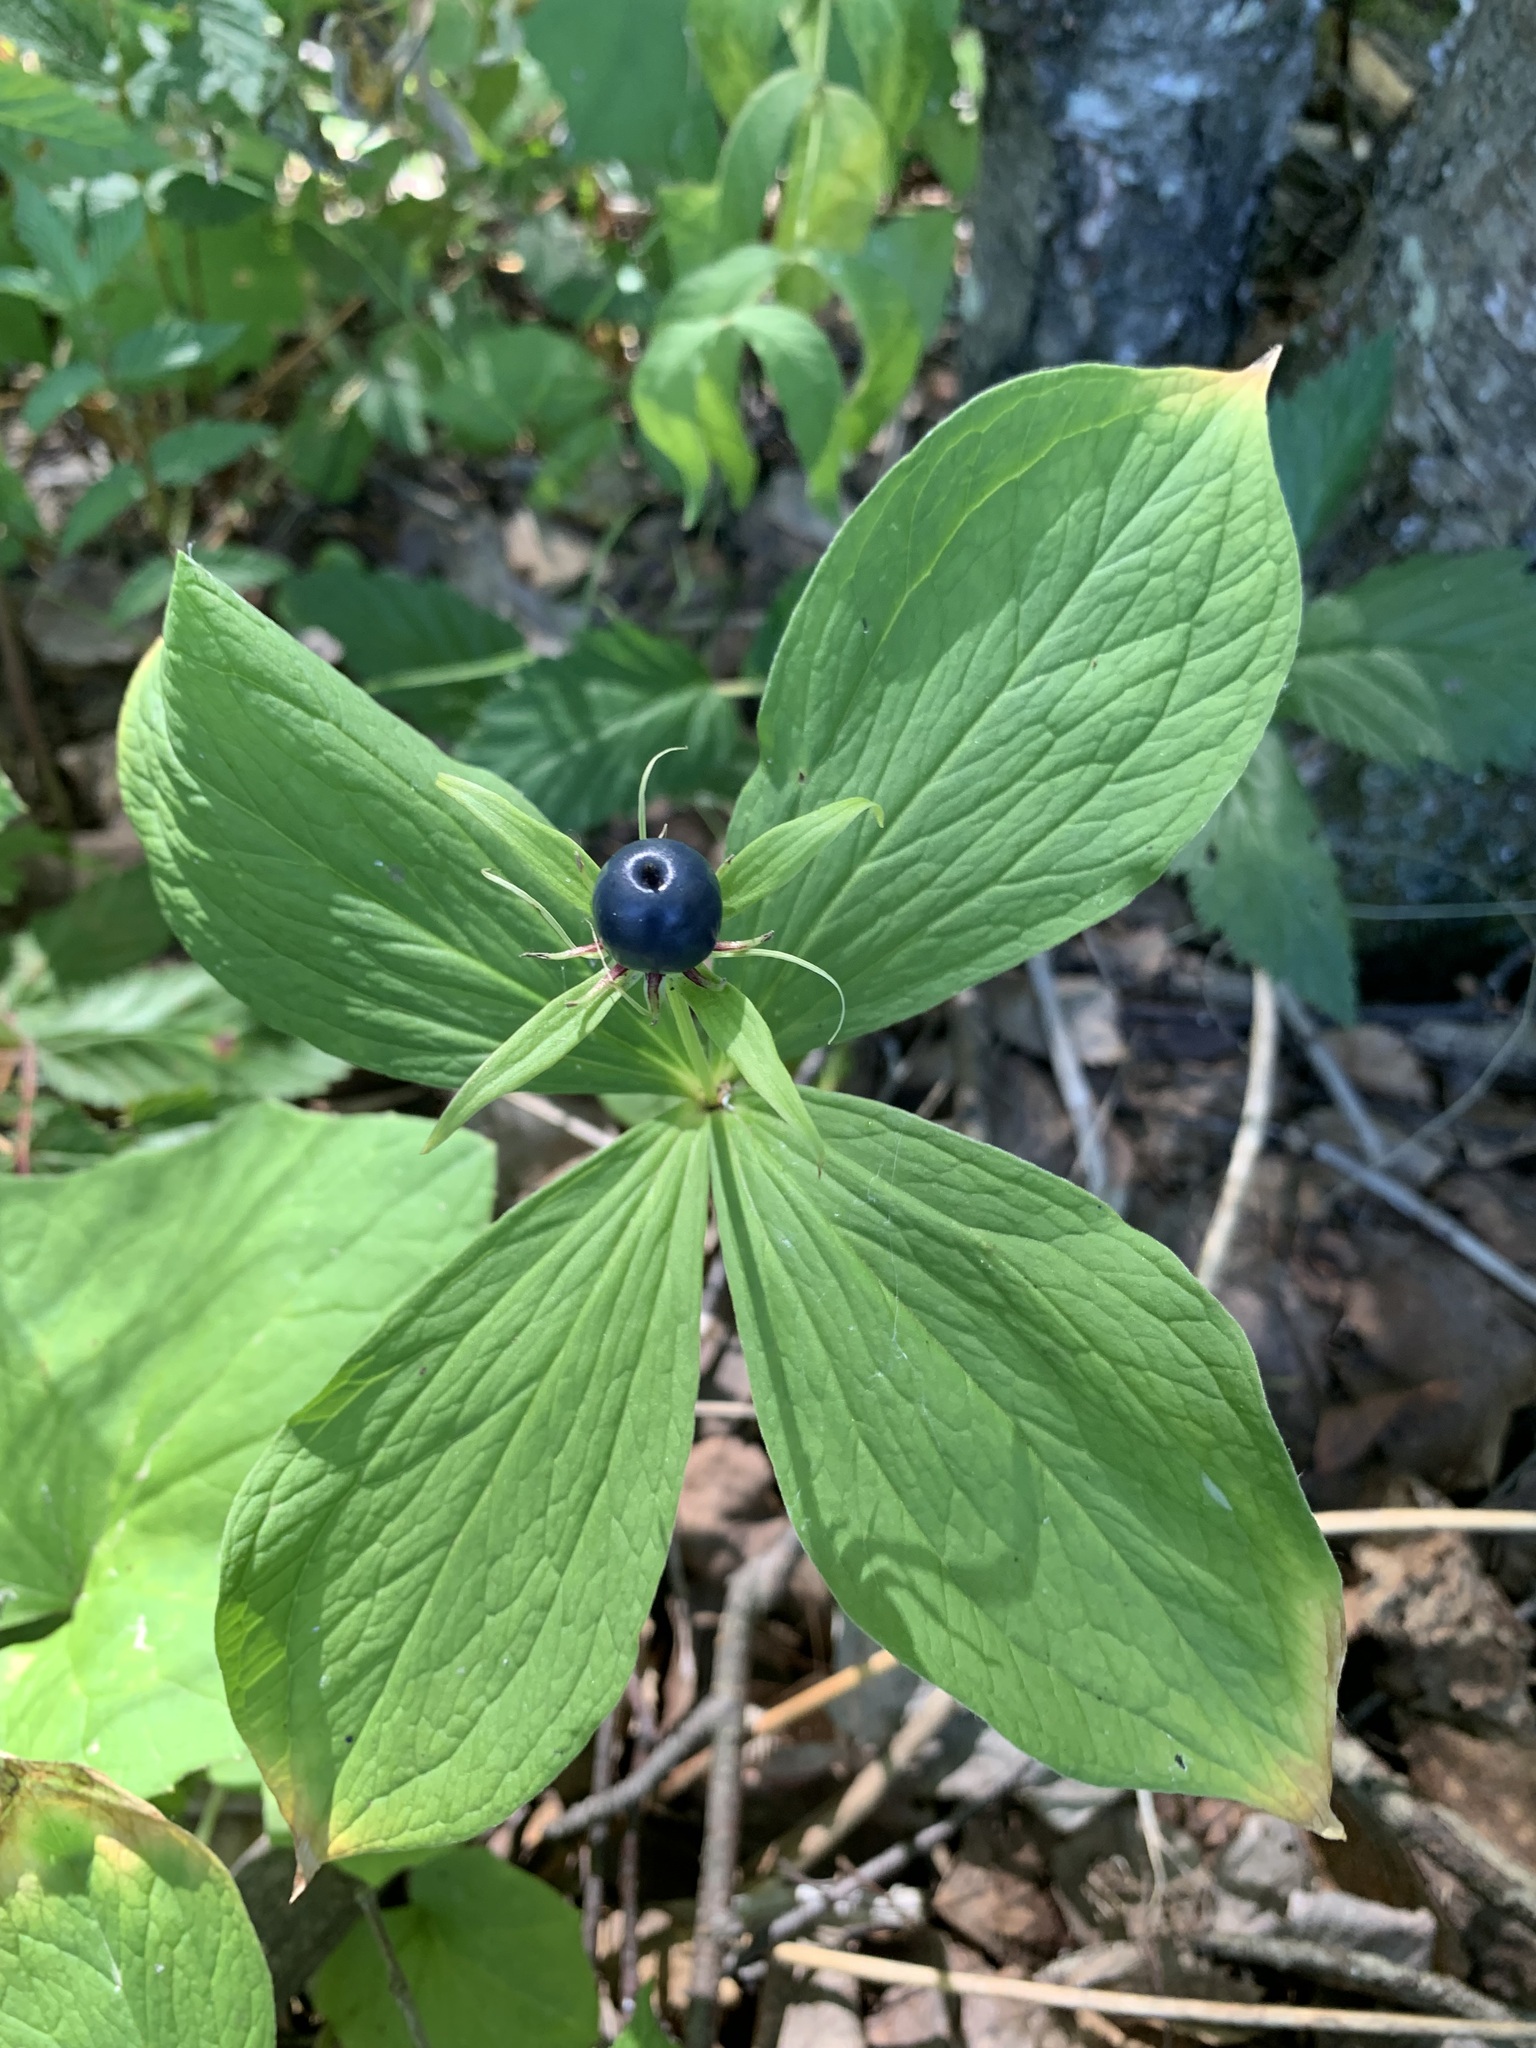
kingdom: Plantae
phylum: Tracheophyta
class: Liliopsida
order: Liliales
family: Melanthiaceae
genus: Paris
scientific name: Paris quadrifolia
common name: Herb-paris
